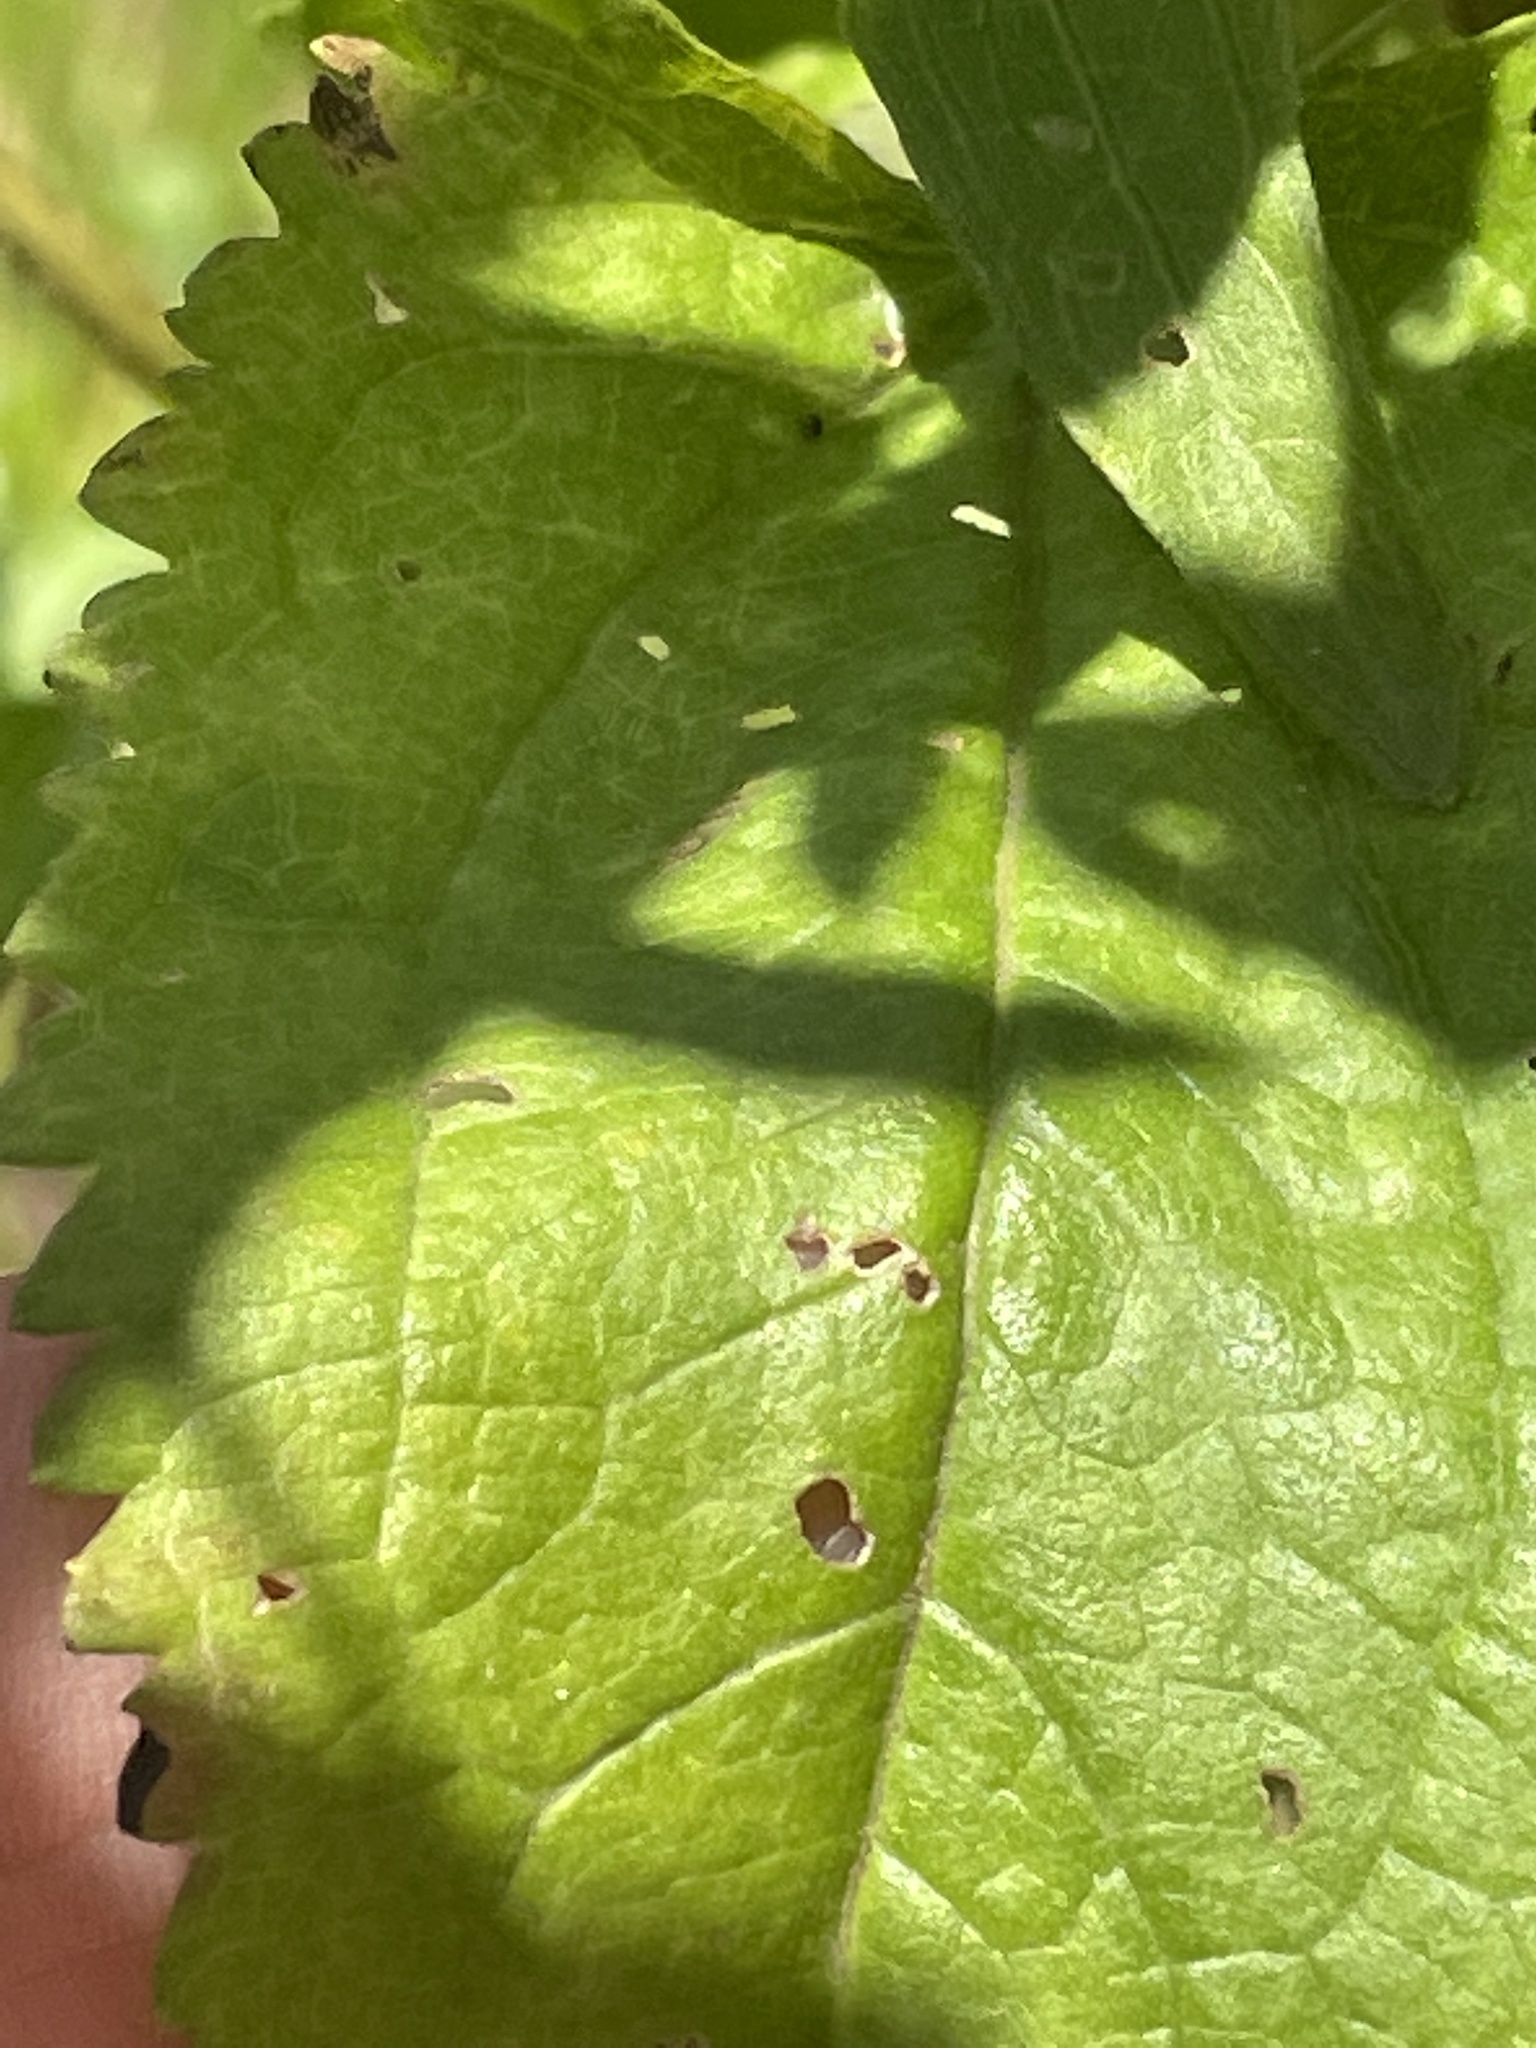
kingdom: Plantae
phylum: Tracheophyta
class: Magnoliopsida
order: Asterales
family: Asteraceae
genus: Eupatorium
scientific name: Eupatorium serotinum
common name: Late boneset
